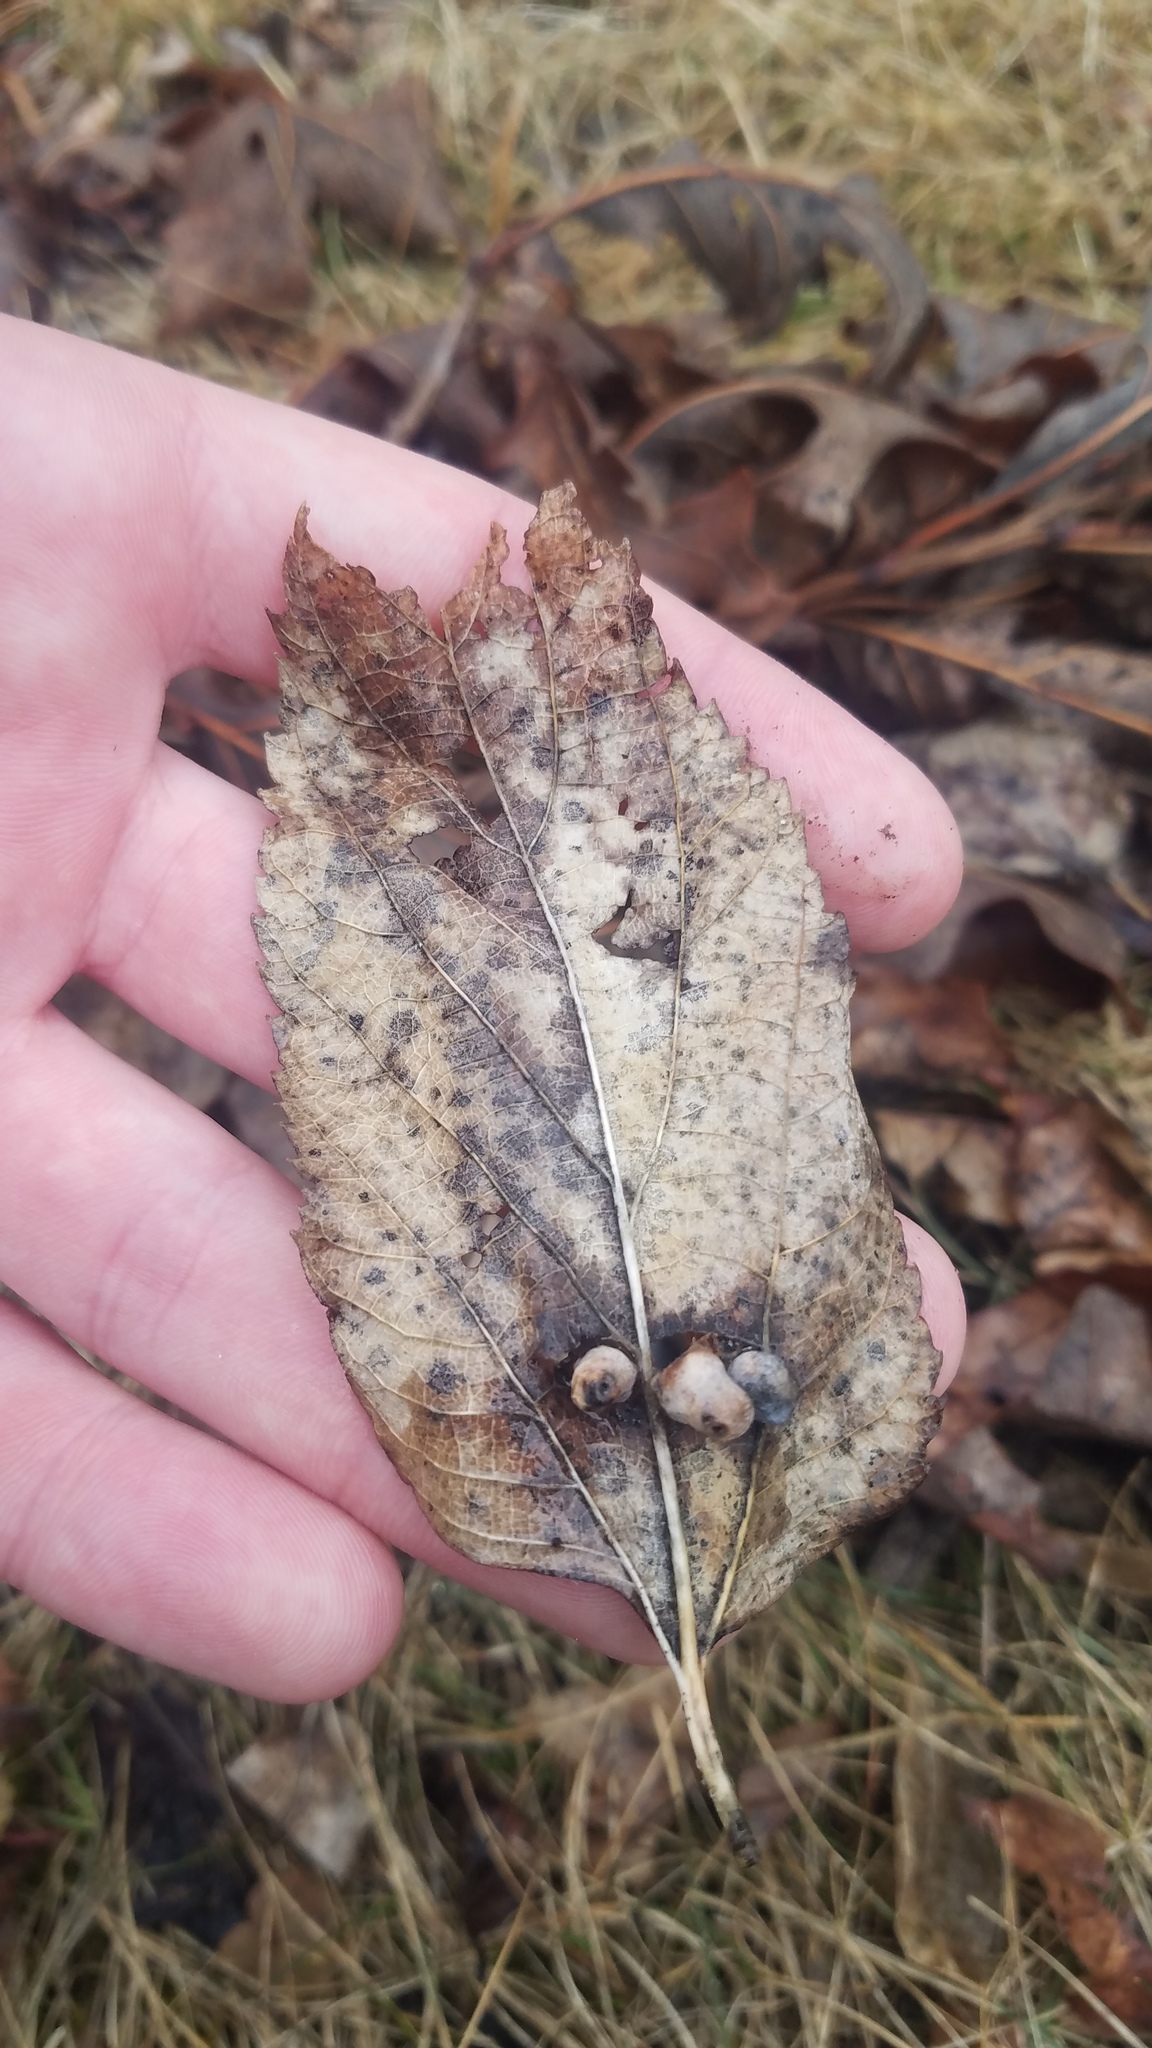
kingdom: Animalia
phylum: Arthropoda
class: Insecta
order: Hemiptera
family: Aphalaridae
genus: Pachypsylla
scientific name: Pachypsylla celtidismamma
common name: Hackberry nipplegall psyllid
